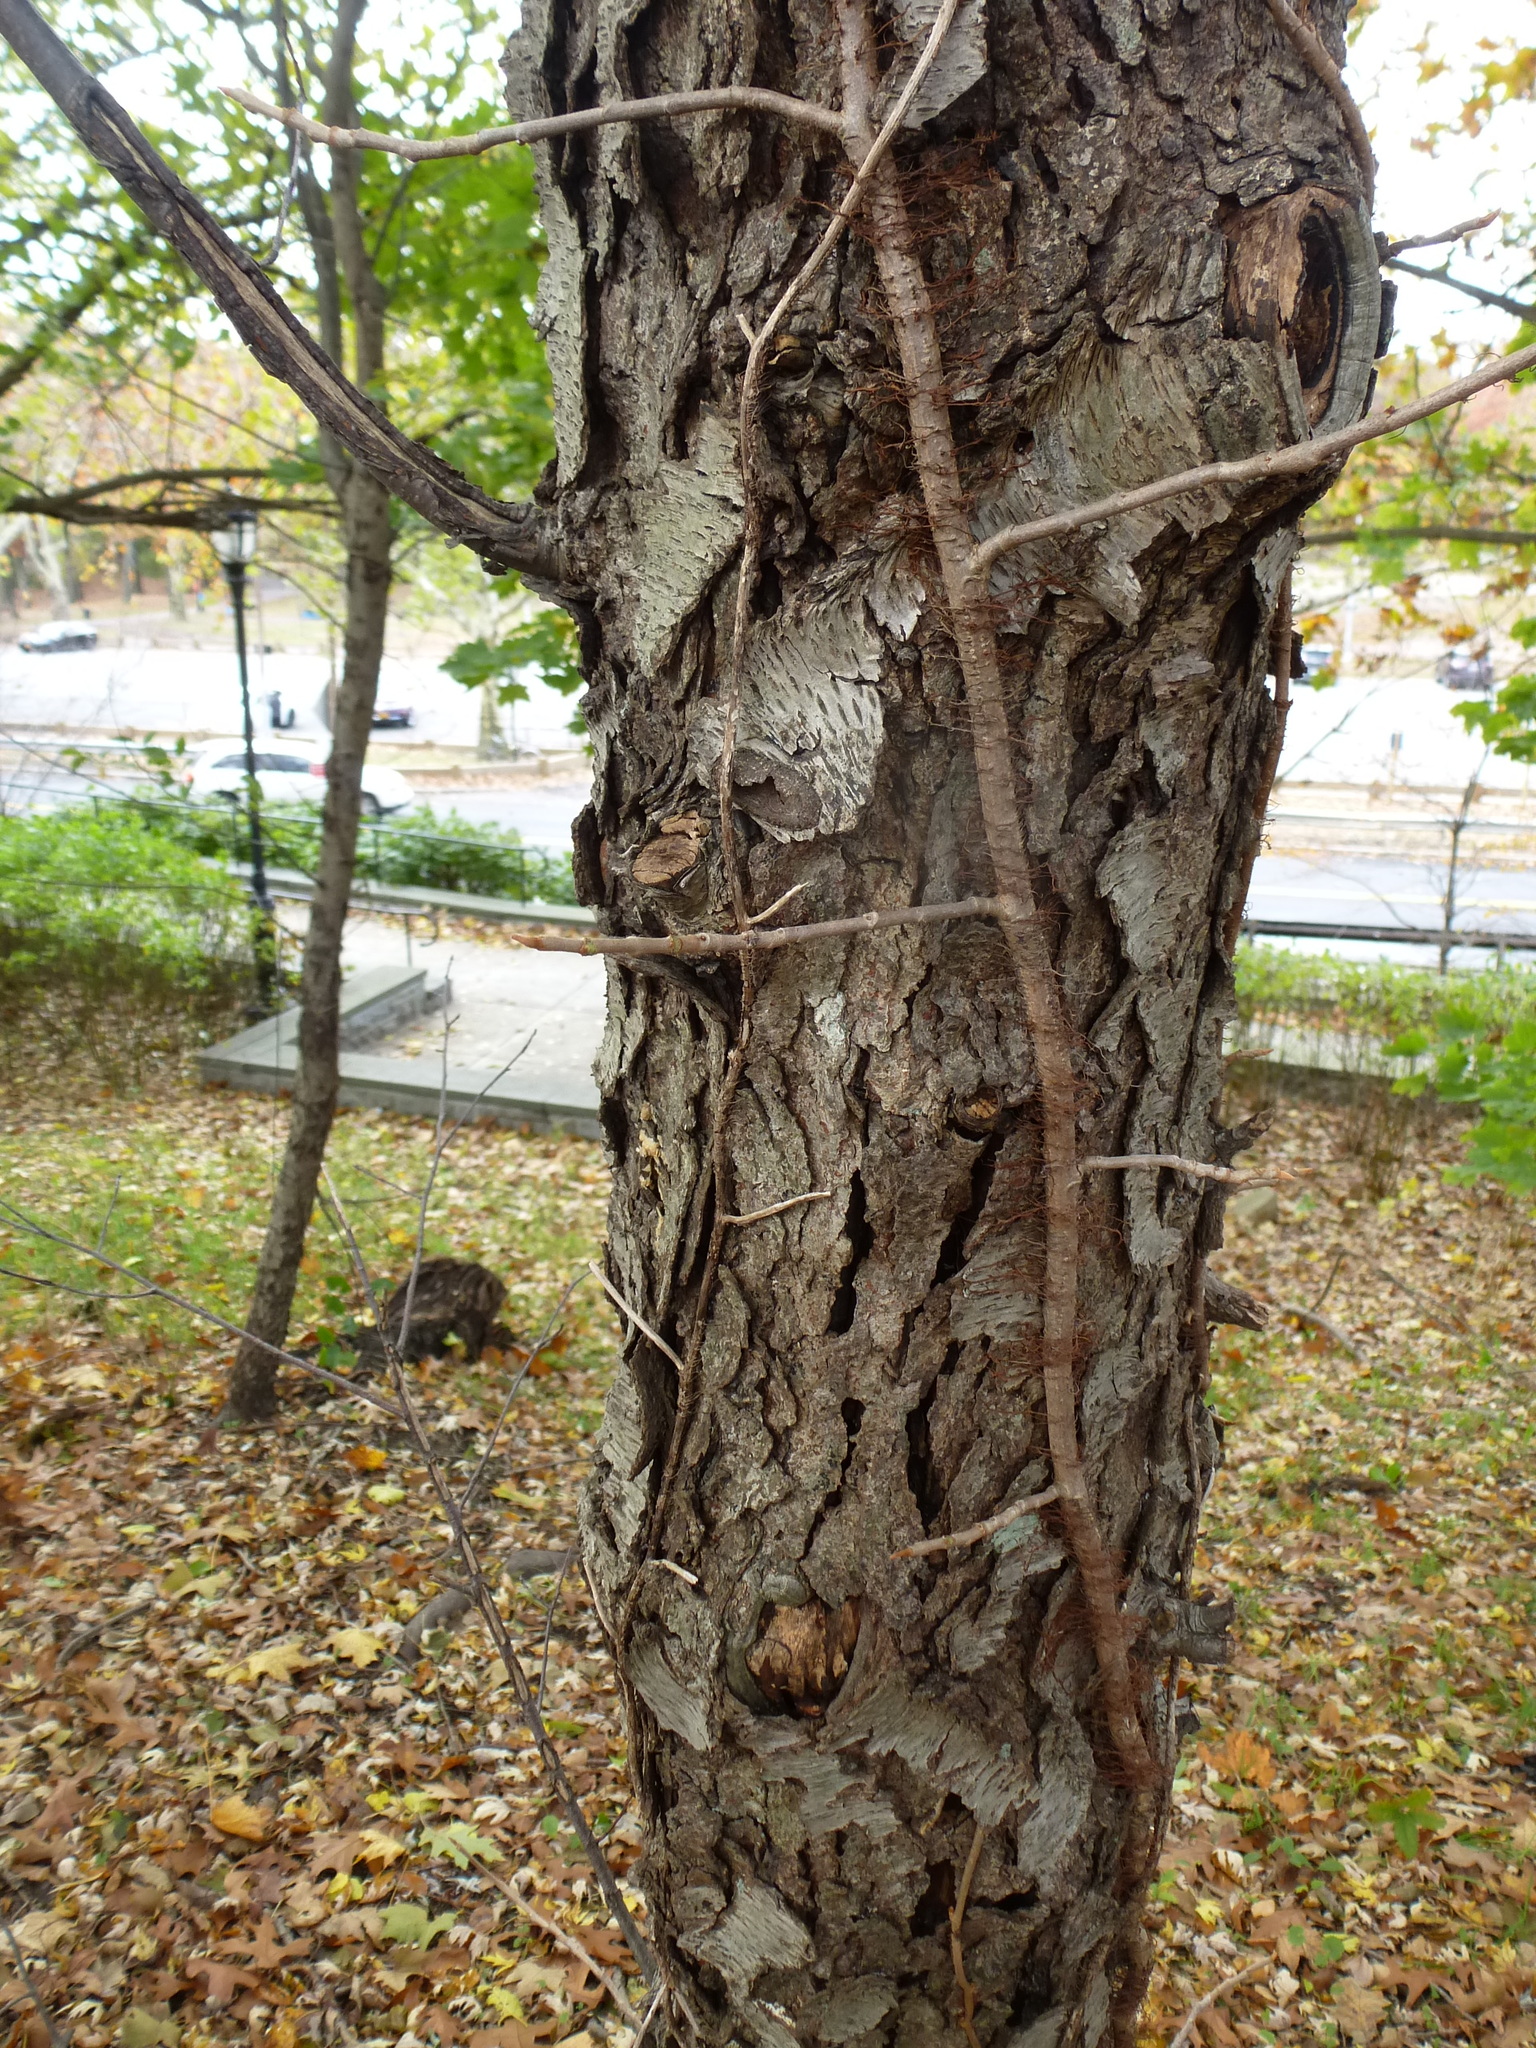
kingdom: Plantae
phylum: Tracheophyta
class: Magnoliopsida
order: Rosales
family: Rosaceae
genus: Prunus
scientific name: Prunus serotina
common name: Black cherry
